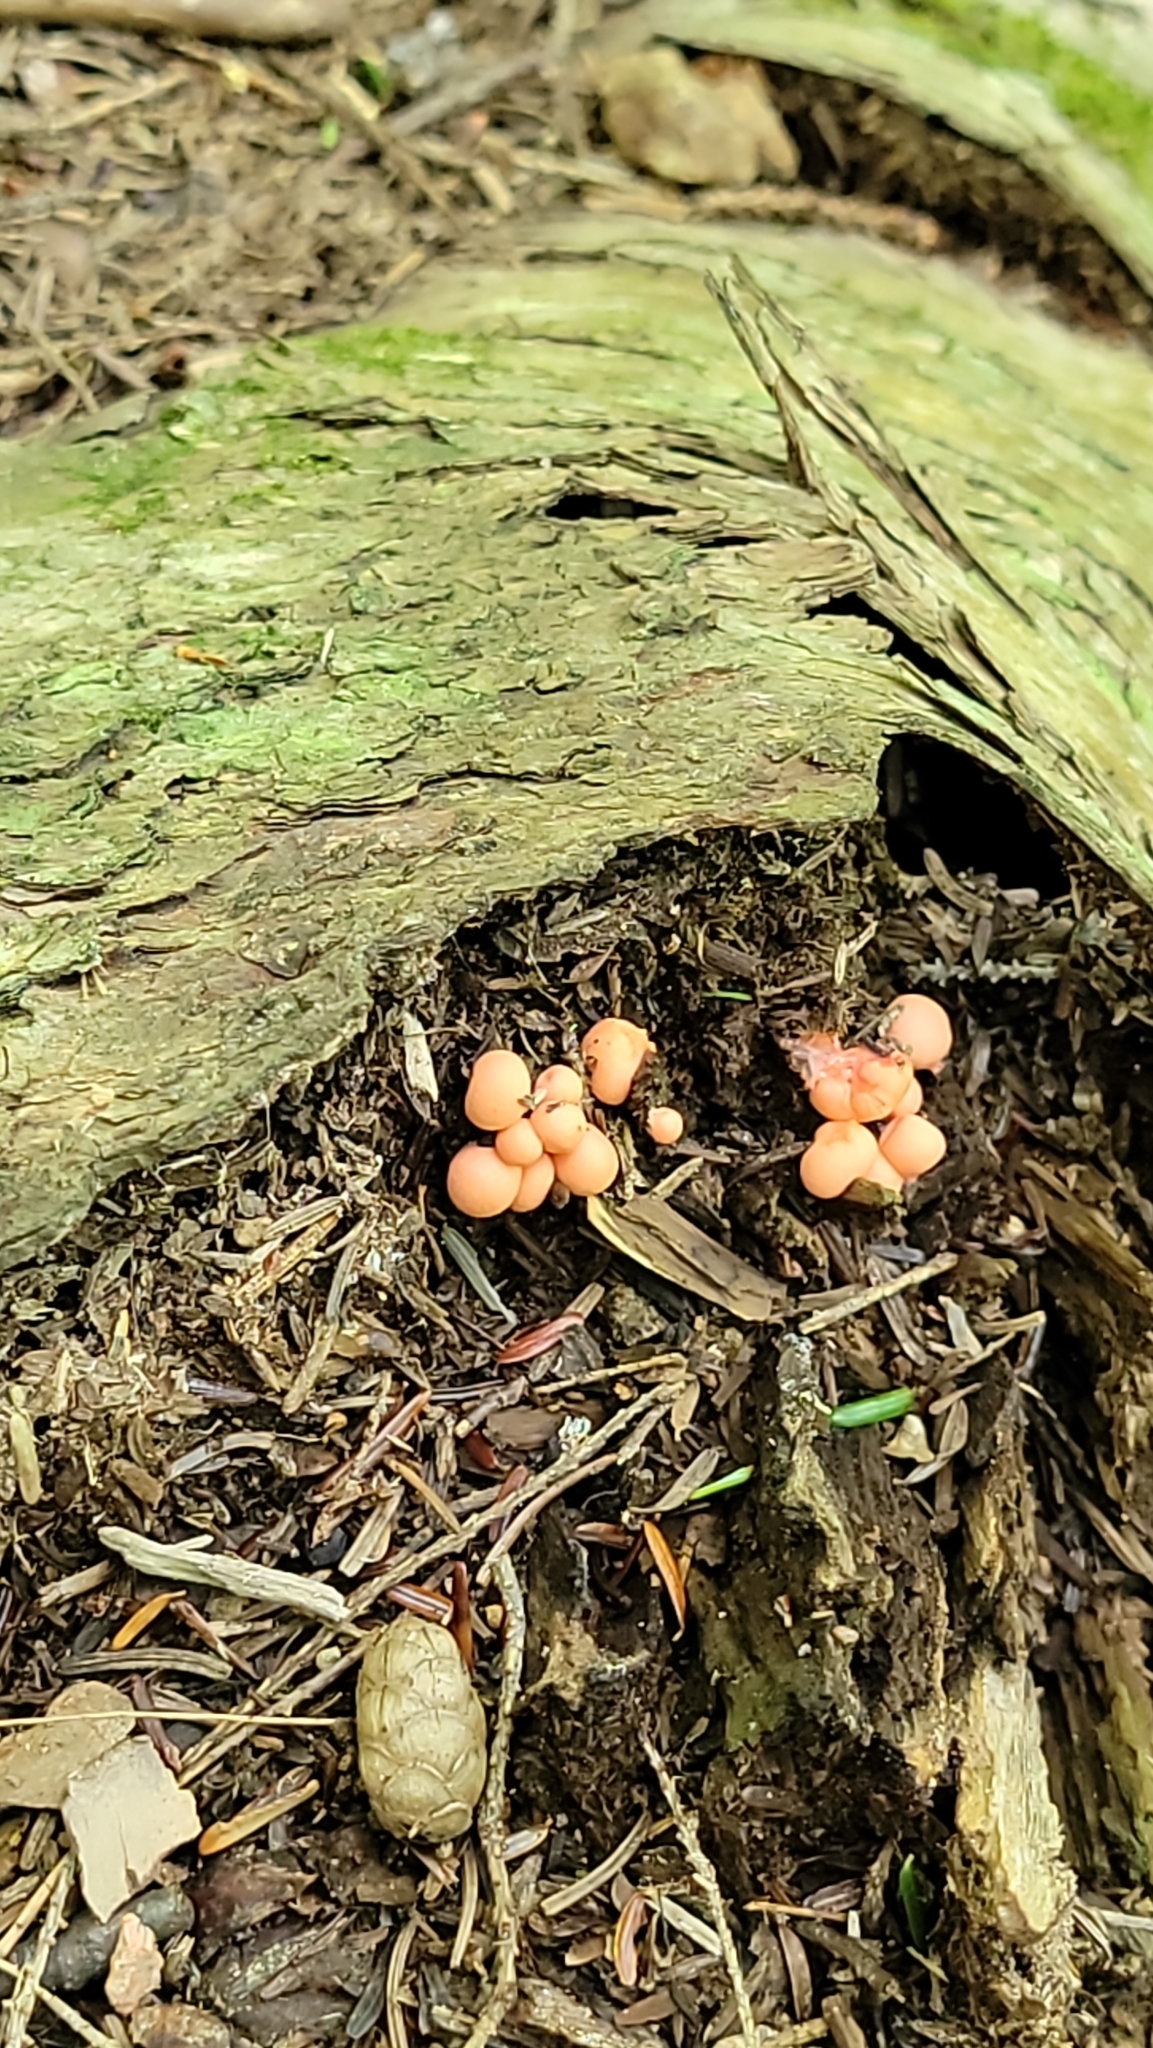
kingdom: Protozoa
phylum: Mycetozoa
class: Myxomycetes
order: Cribrariales
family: Tubiferaceae
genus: Lycogala
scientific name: Lycogala epidendrum
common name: Wolf's milk
